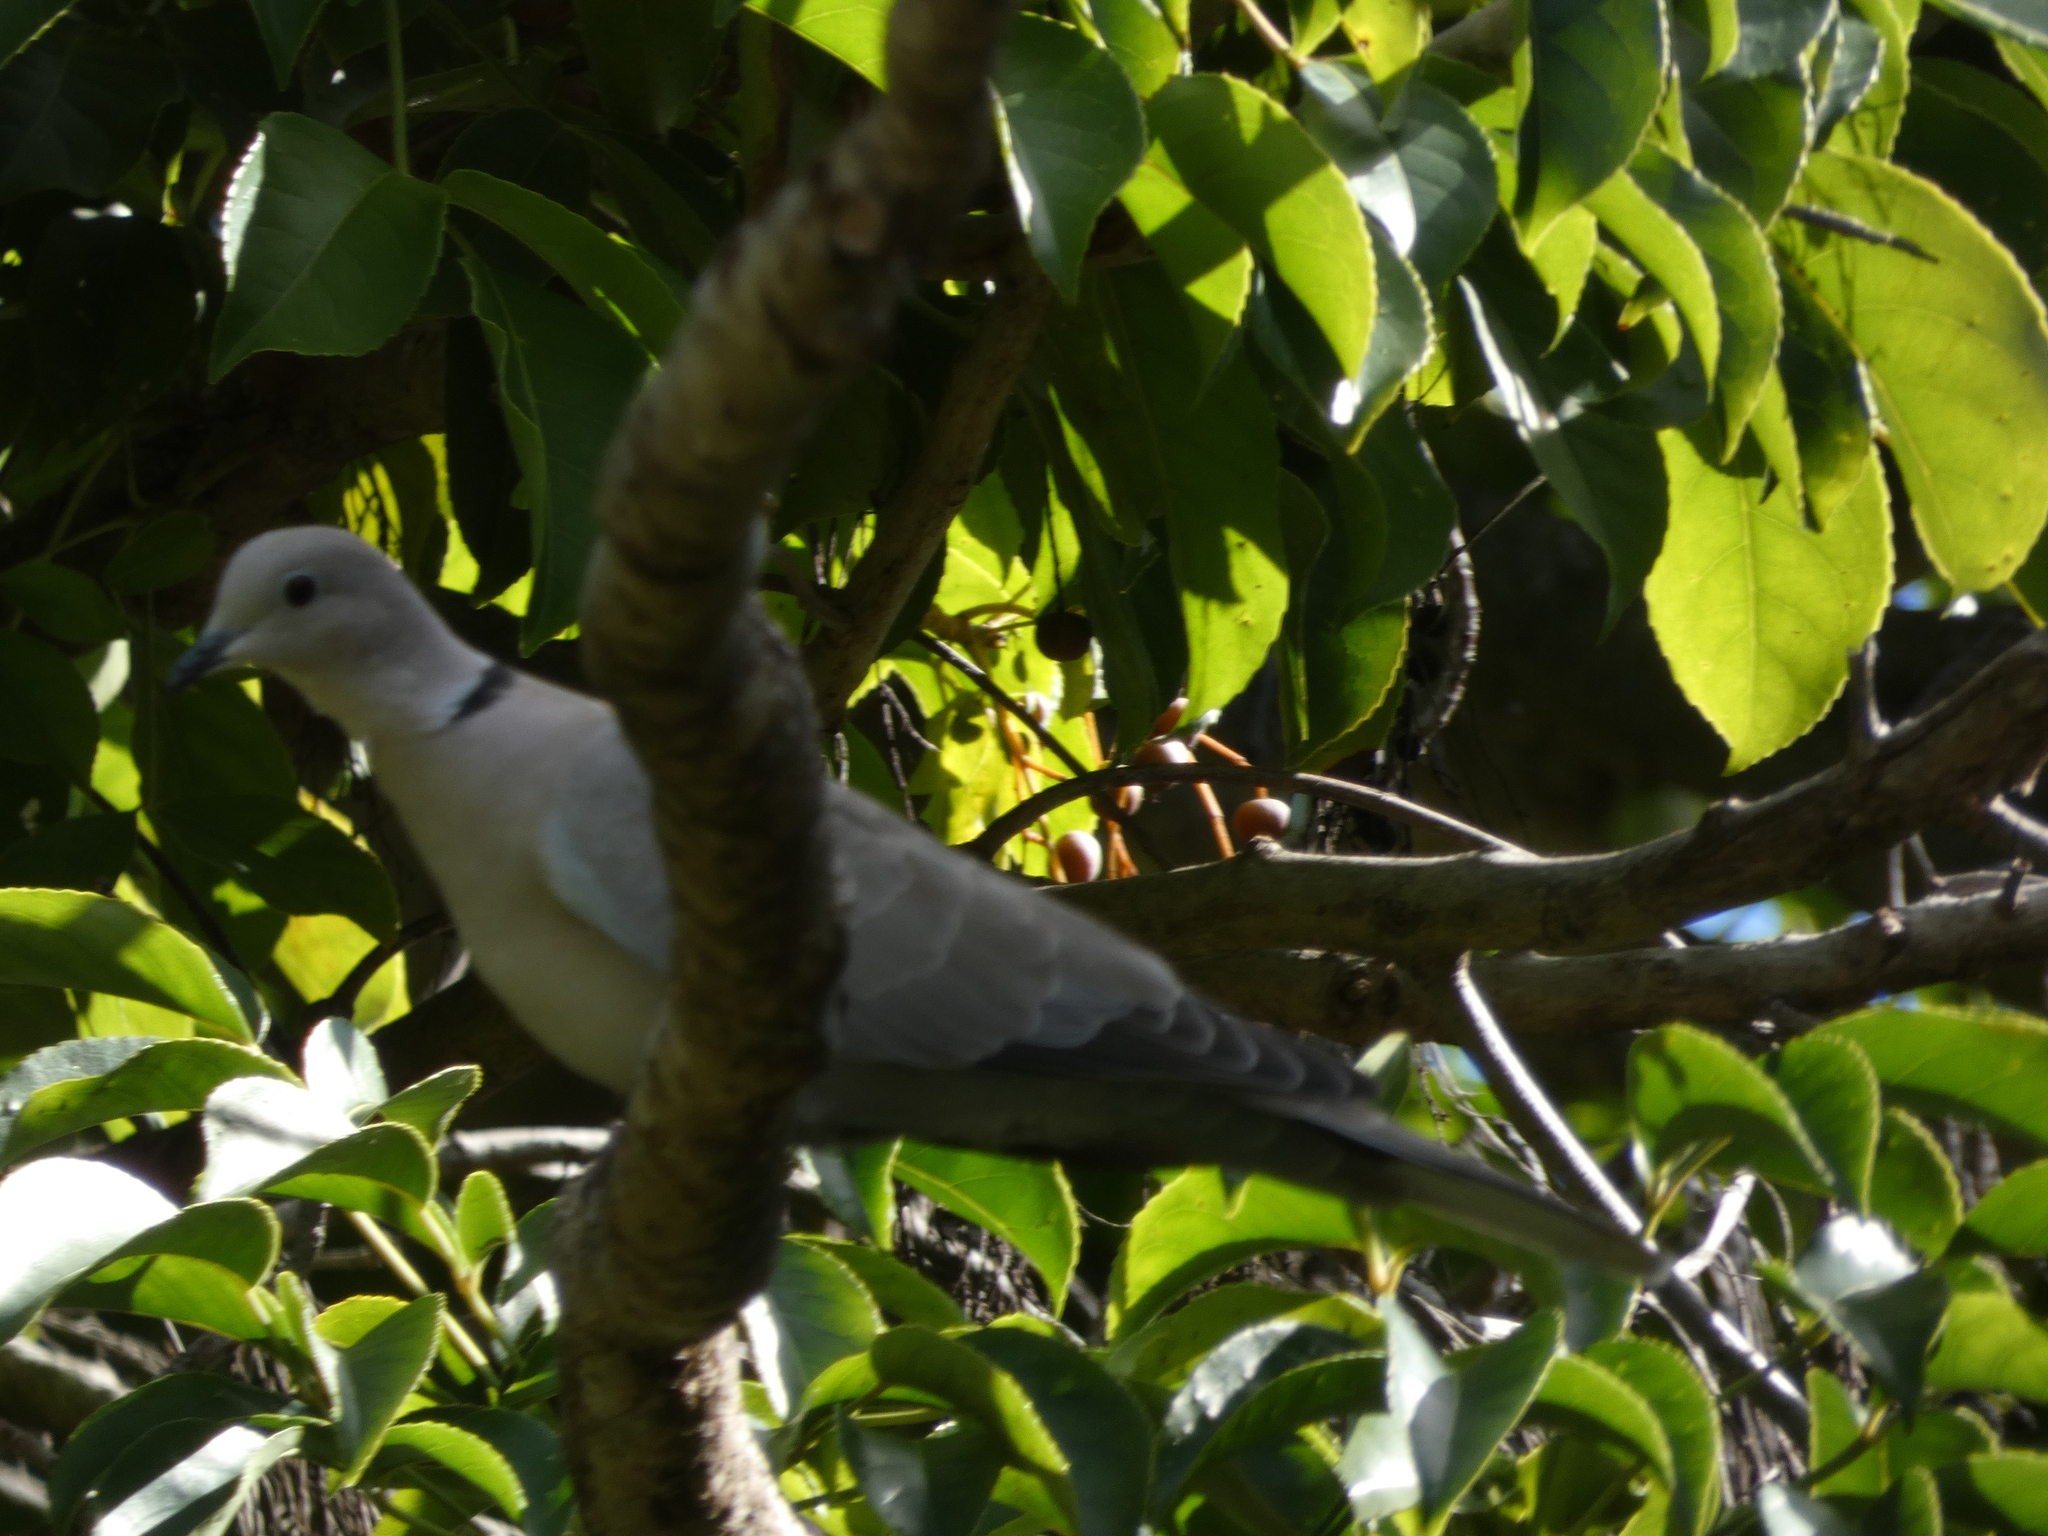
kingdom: Animalia
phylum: Chordata
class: Aves
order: Columbiformes
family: Columbidae
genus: Streptopelia
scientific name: Streptopelia decaocto
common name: Eurasian collared dove
